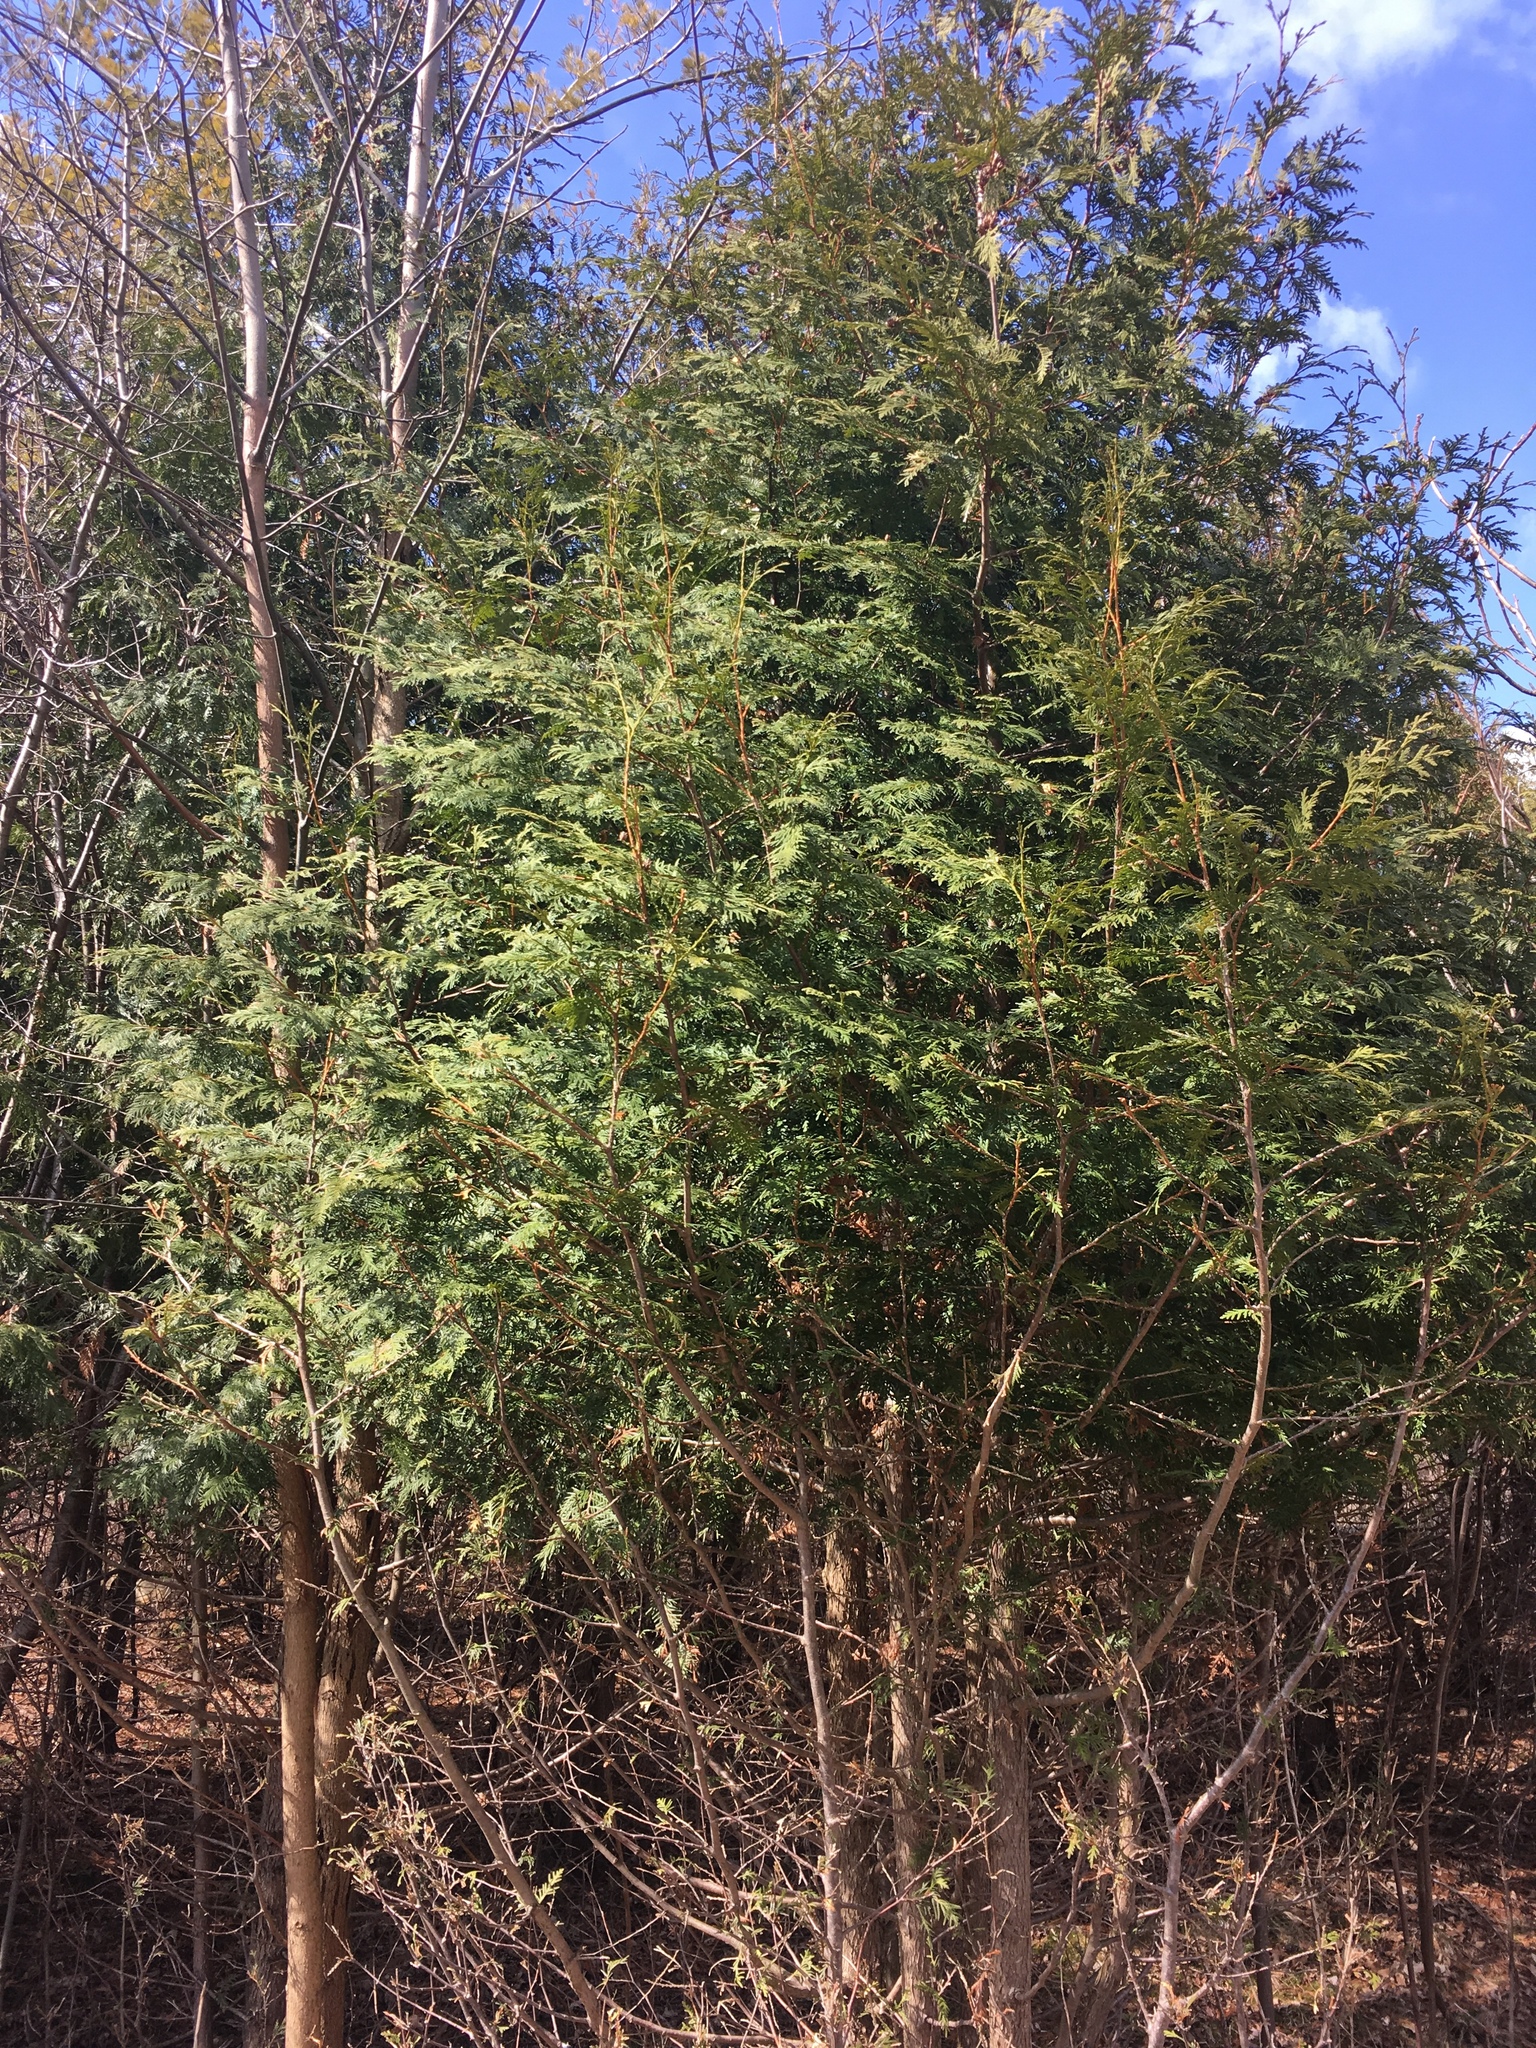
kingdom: Plantae
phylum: Tracheophyta
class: Pinopsida
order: Pinales
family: Cupressaceae
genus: Thuja
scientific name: Thuja occidentalis
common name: Northern white-cedar
